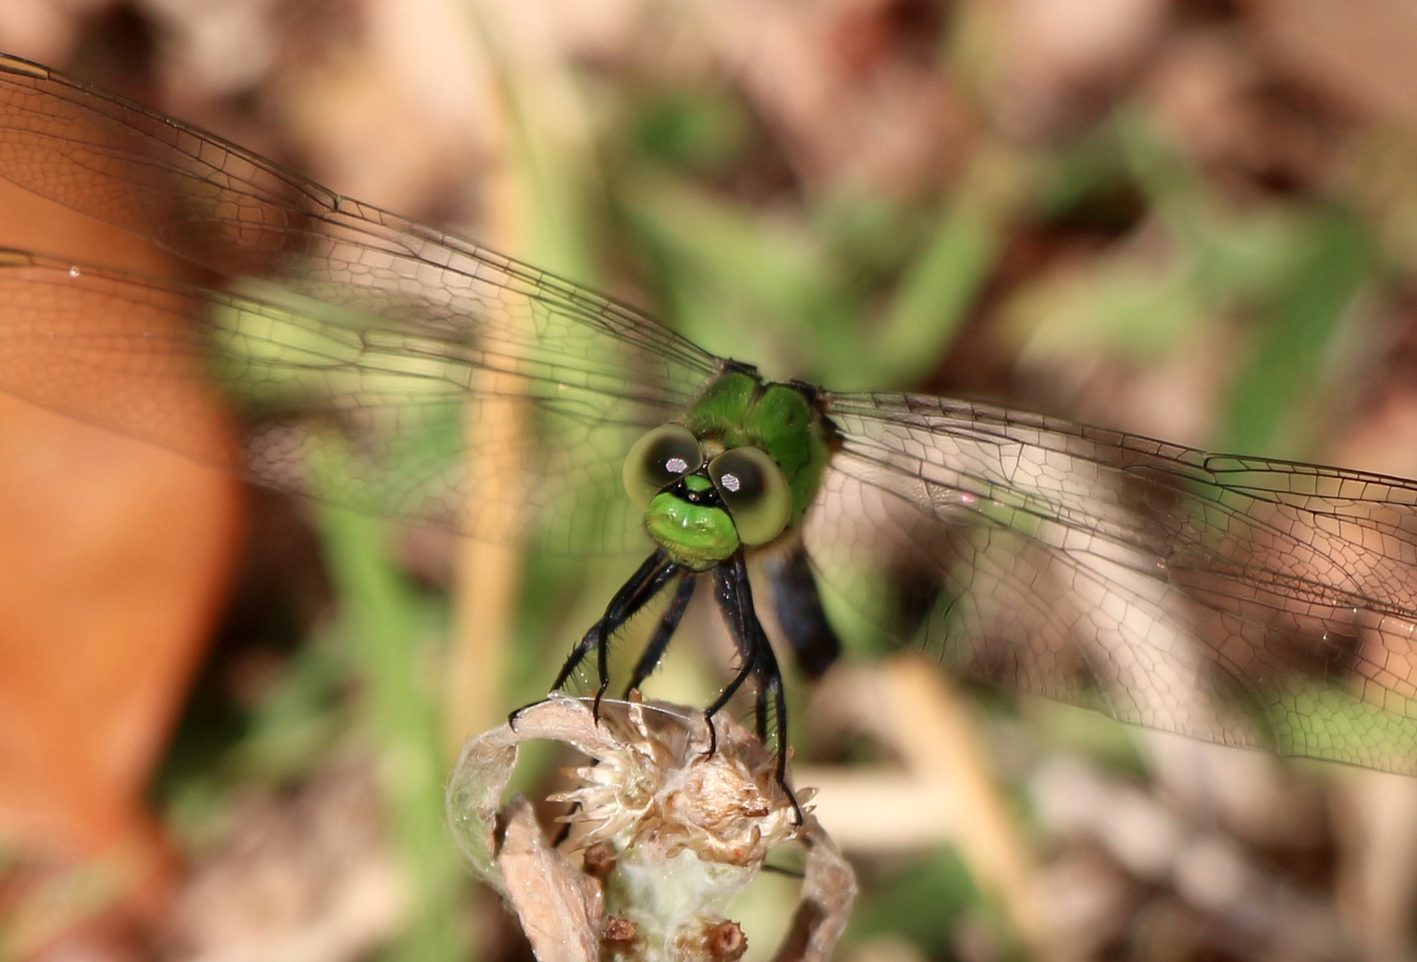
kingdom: Animalia
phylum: Arthropoda
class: Insecta
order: Odonata
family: Libellulidae
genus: Erythemis
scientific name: Erythemis simplicicollis
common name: Eastern pondhawk
